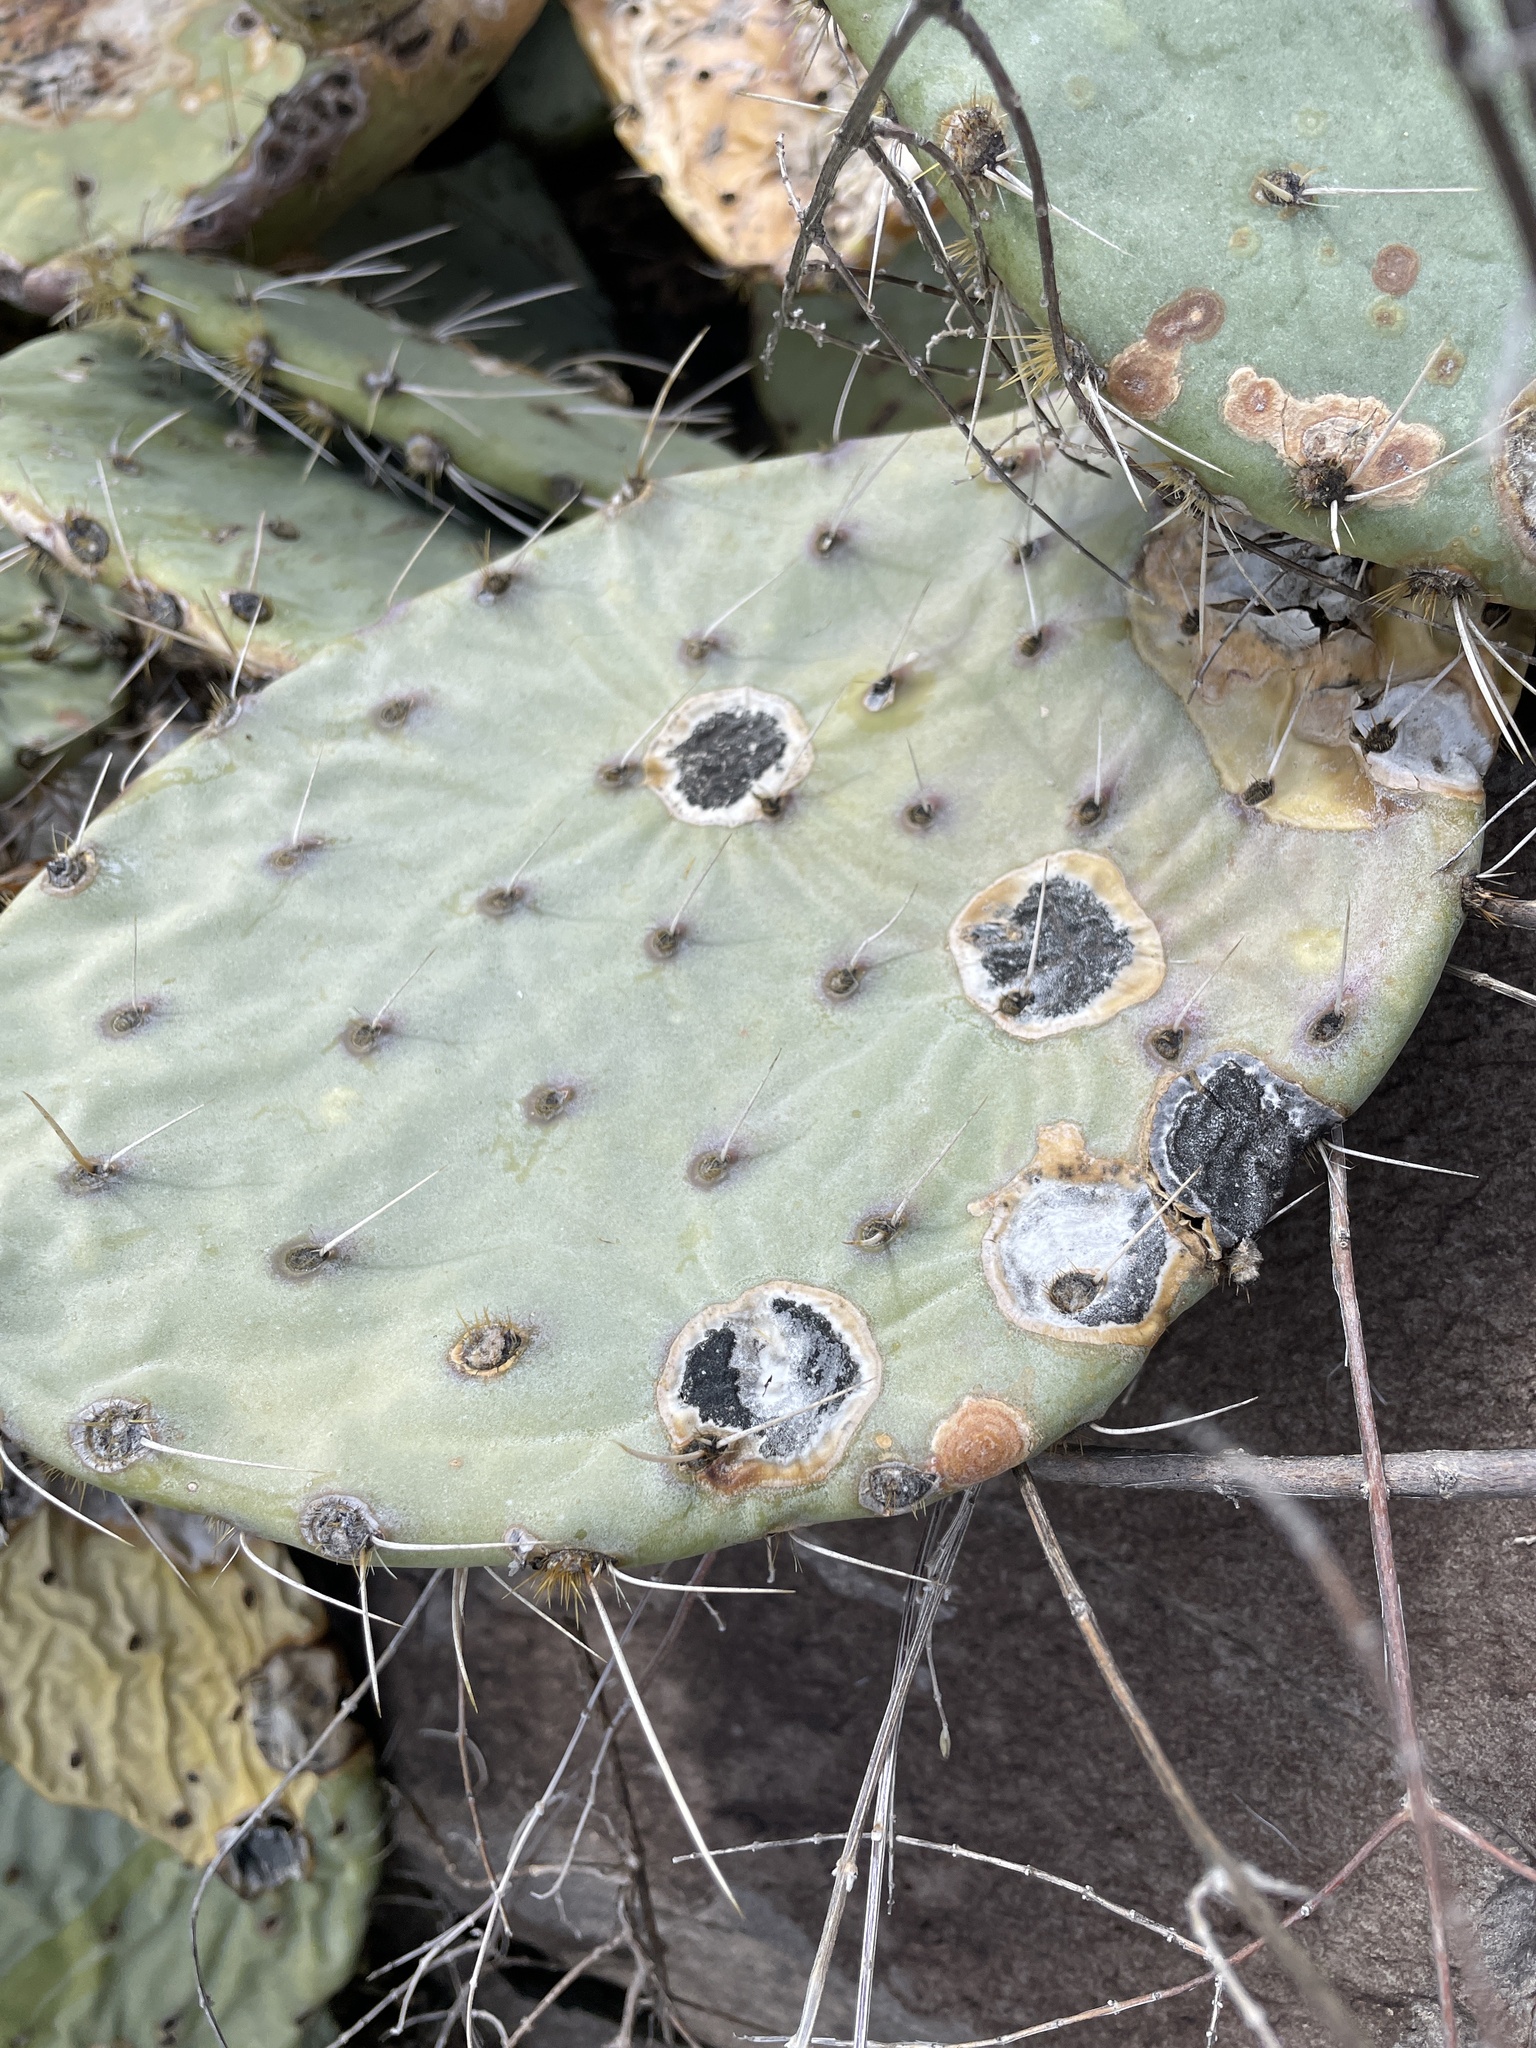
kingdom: Fungi
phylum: Ascomycota
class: Dothideomycetes
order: Botryosphaeriales
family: Phyllostictaceae
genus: Phyllosticta
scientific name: Phyllosticta concava
